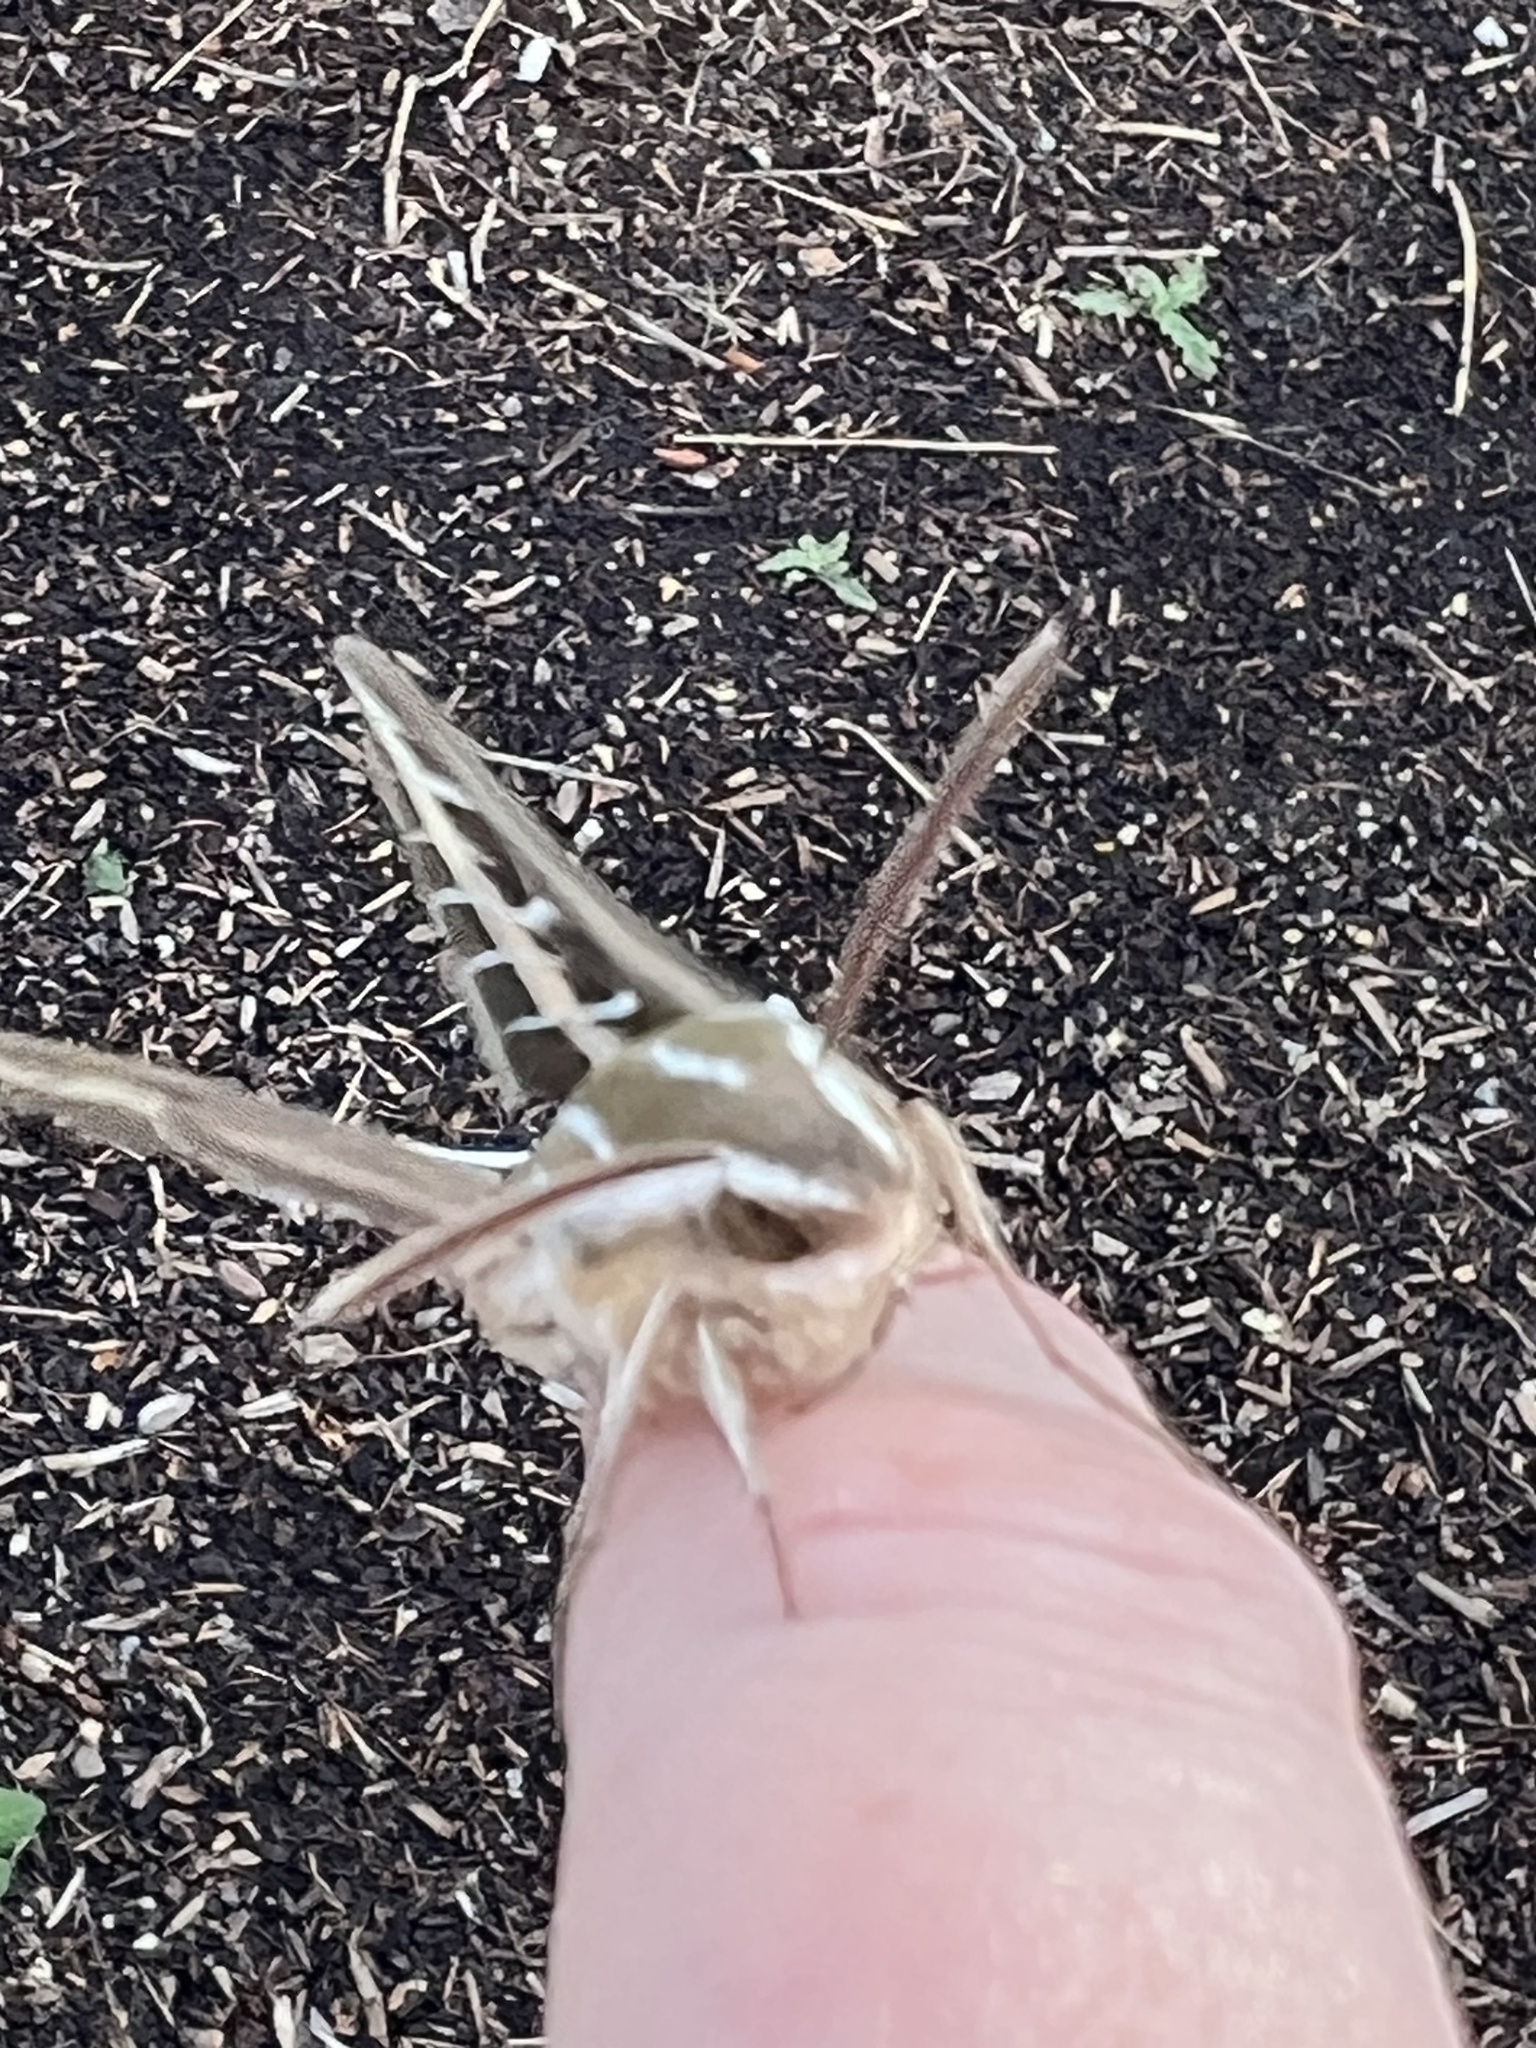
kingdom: Animalia
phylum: Arthropoda
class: Insecta
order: Lepidoptera
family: Sphingidae
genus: Hyles
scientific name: Hyles lineata
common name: White-lined sphinx
